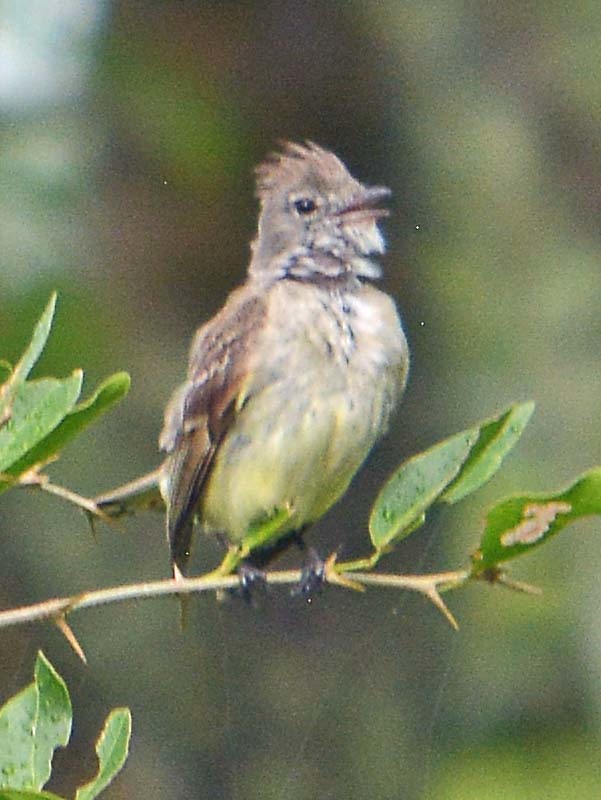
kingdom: Animalia
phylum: Chordata
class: Aves
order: Passeriformes
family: Tyrannidae
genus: Elaenia
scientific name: Elaenia flavogaster
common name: Yellow-bellied elaenia
